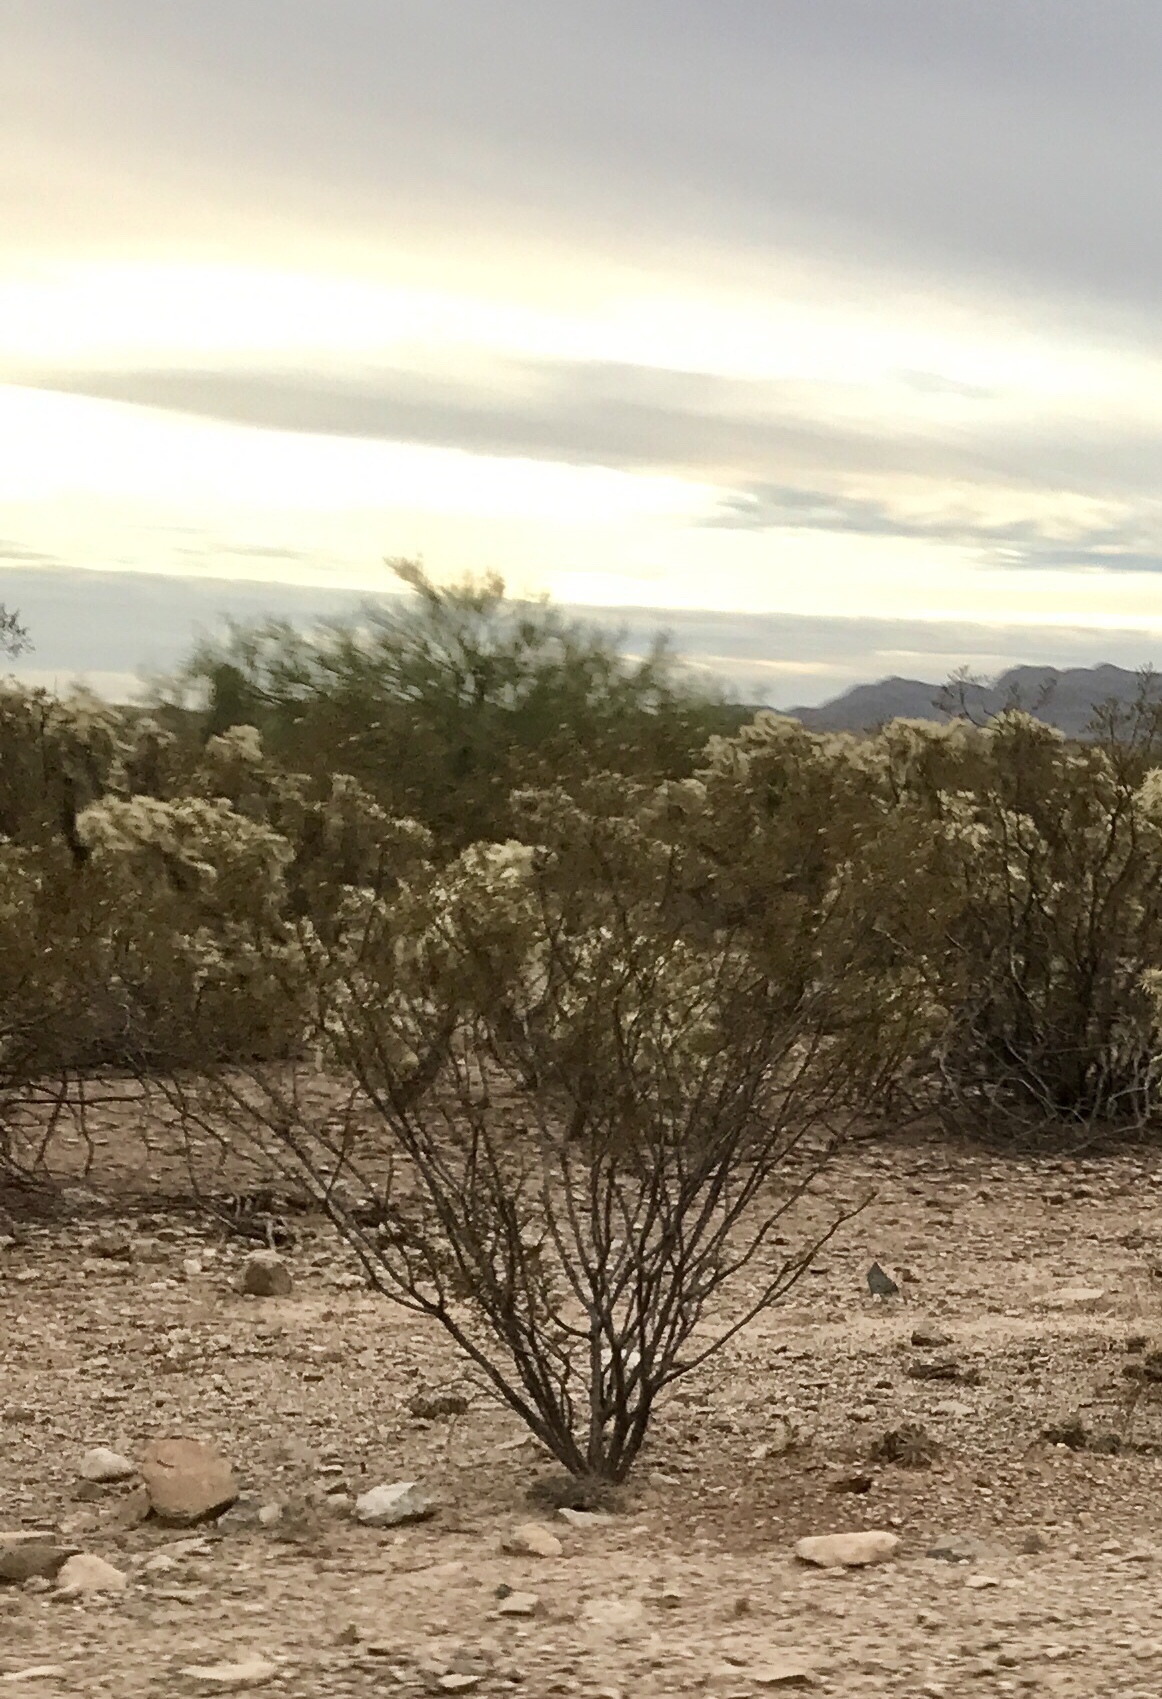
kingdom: Plantae
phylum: Tracheophyta
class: Magnoliopsida
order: Zygophyllales
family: Zygophyllaceae
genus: Larrea
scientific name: Larrea tridentata
